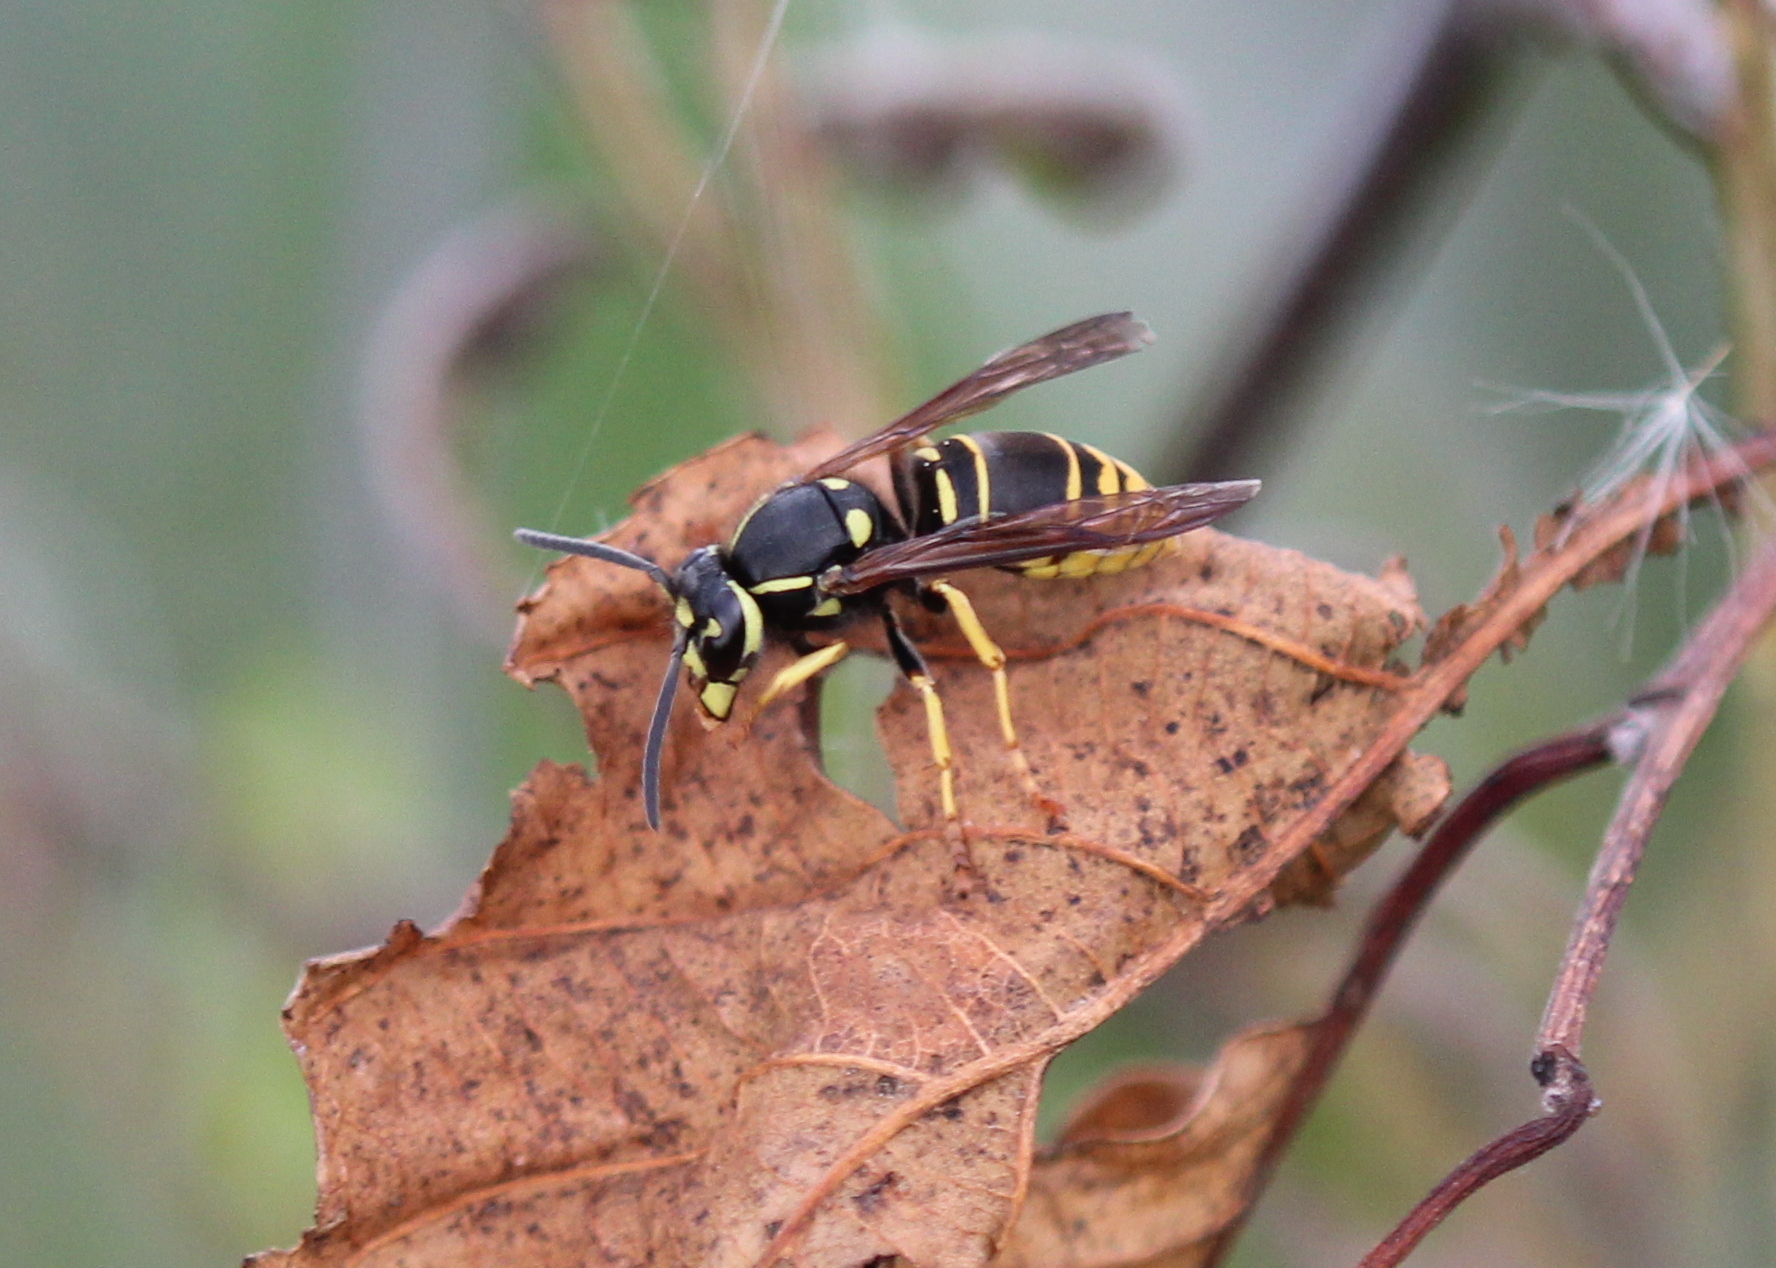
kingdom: Animalia
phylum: Arthropoda
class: Insecta
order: Hymenoptera
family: Vespidae
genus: Vespula
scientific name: Vespula vidua
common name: Widow yellowjacket
